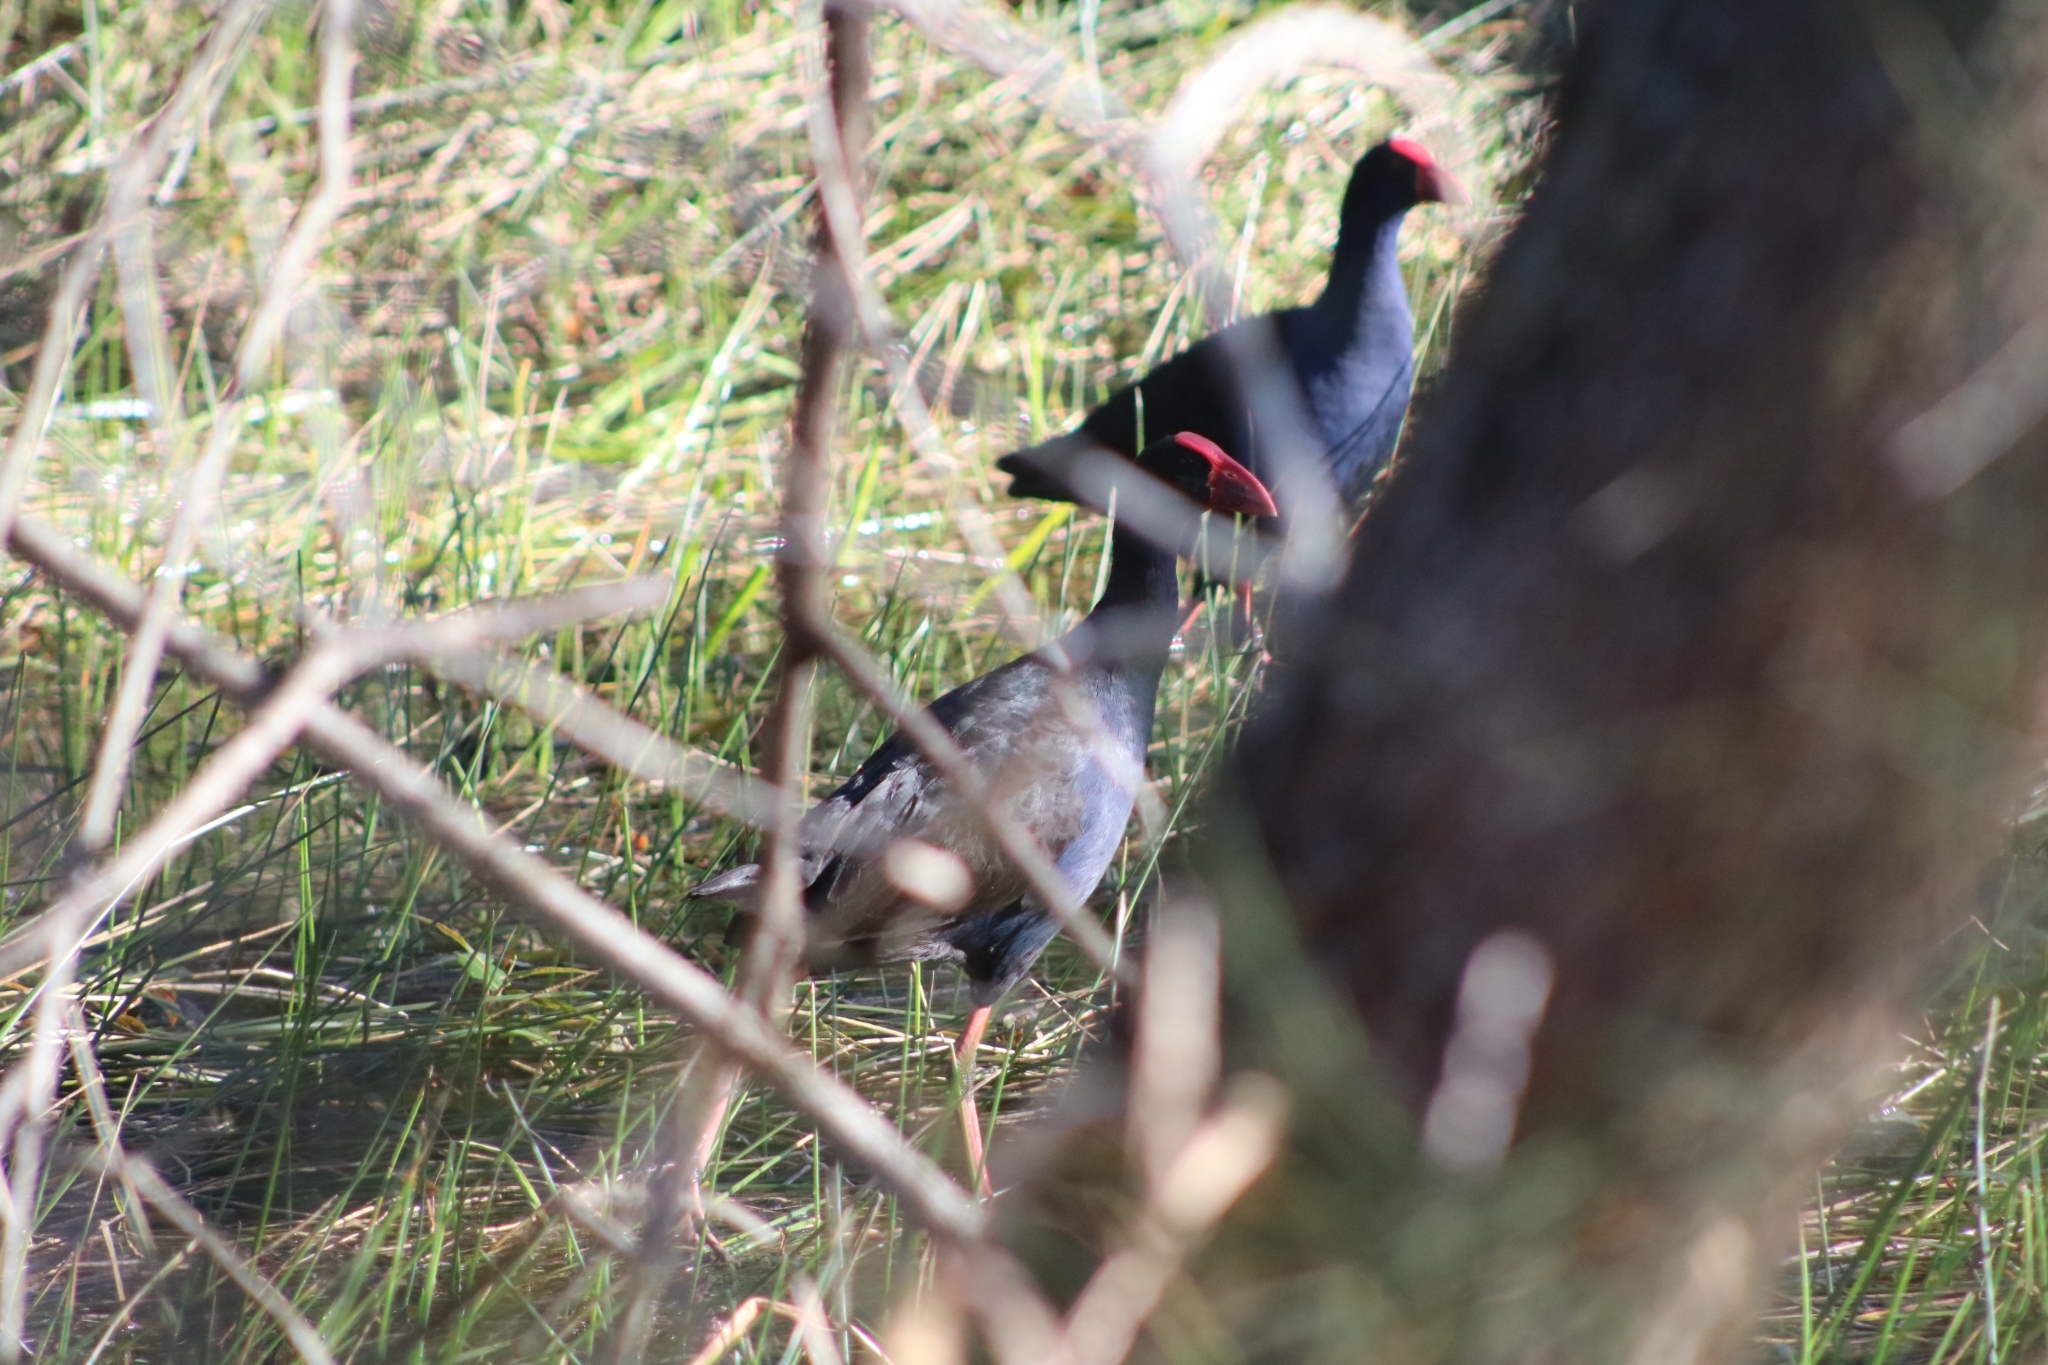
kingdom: Animalia
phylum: Chordata
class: Aves
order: Gruiformes
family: Rallidae
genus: Porphyrio
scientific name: Porphyrio melanotus
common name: Australasian swamphen
